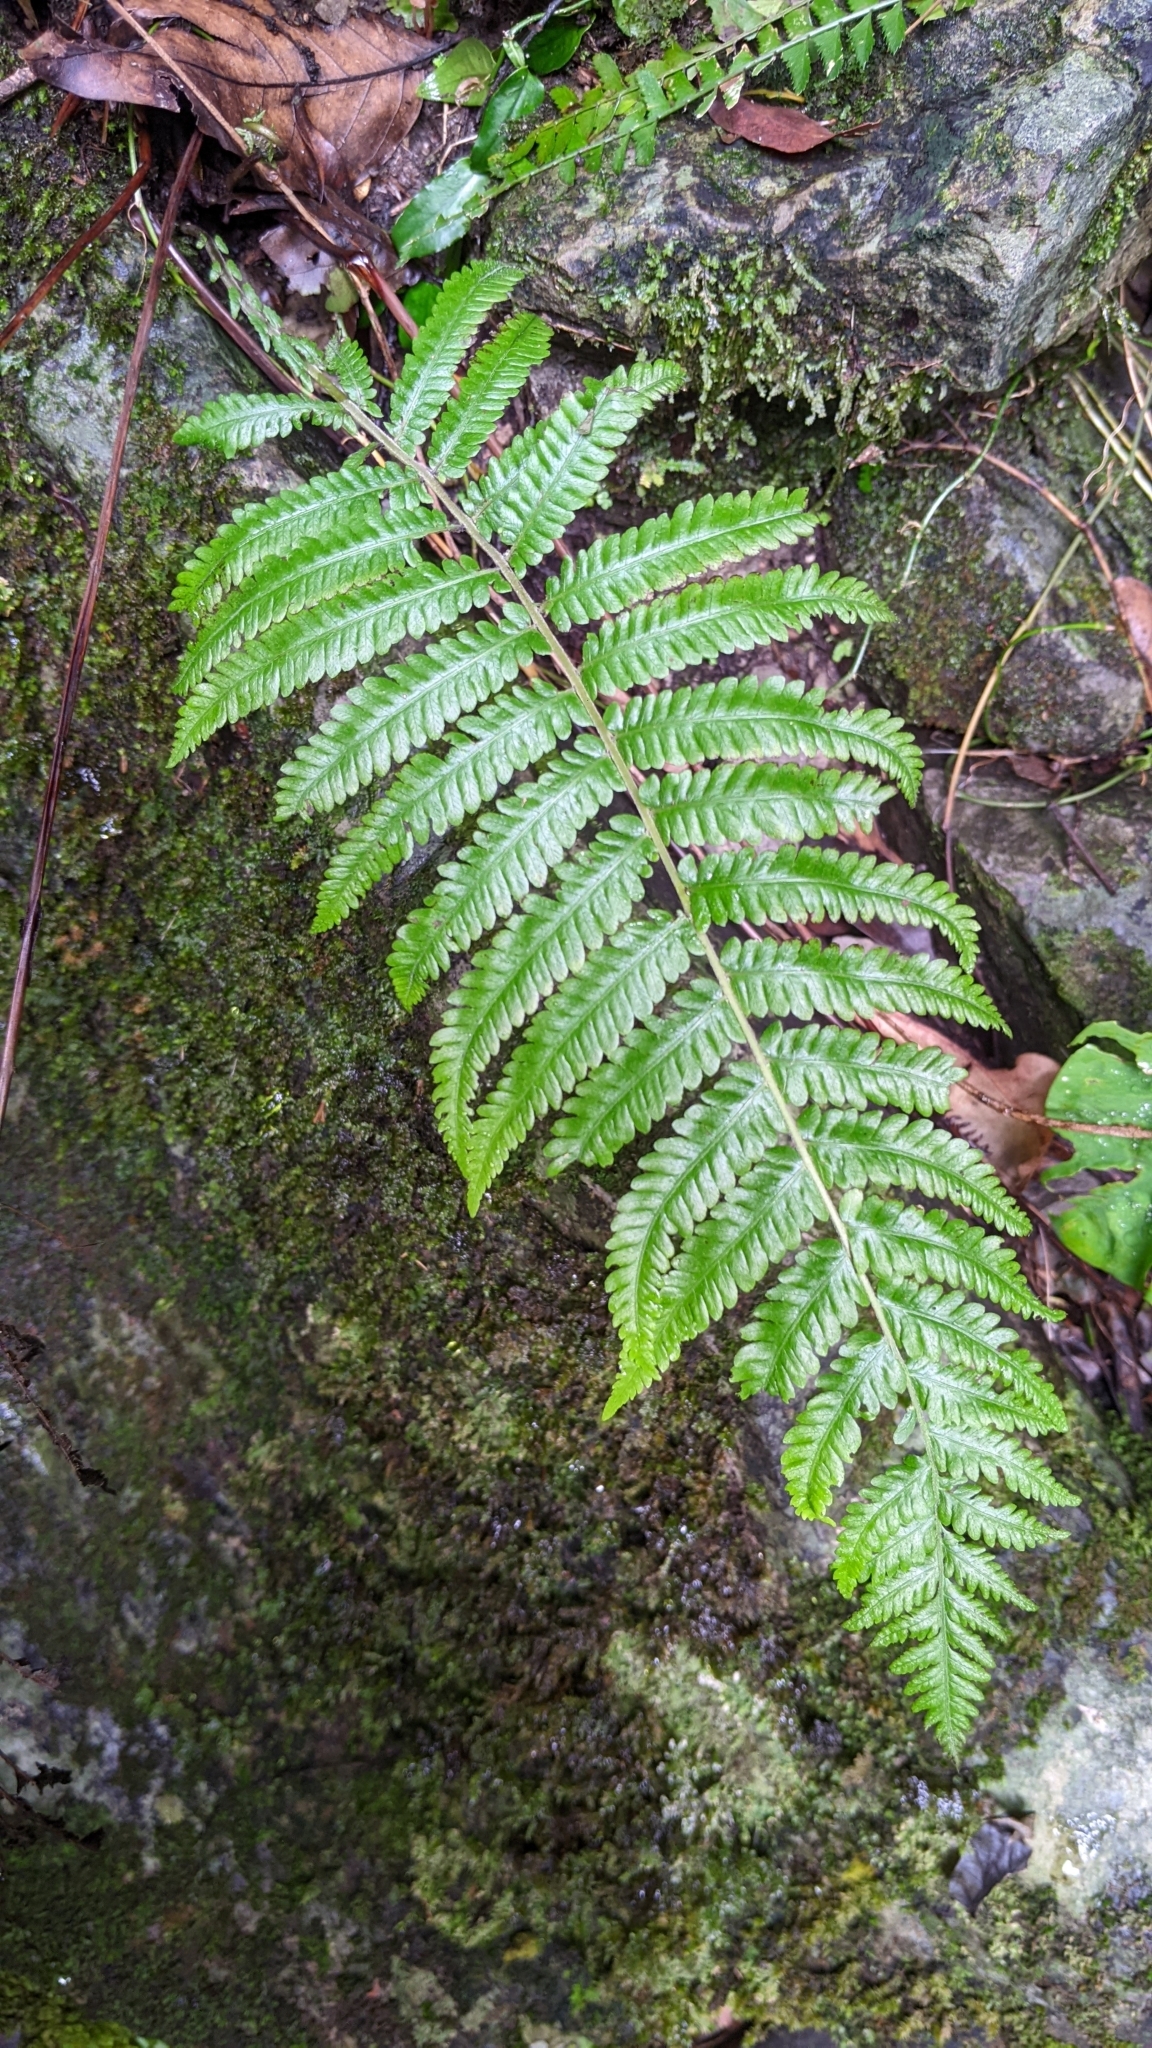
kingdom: Plantae
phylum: Tracheophyta
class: Polypodiopsida
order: Polypodiales
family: Thelypteridaceae
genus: Pseudocyclosorus
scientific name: Pseudocyclosorus esquirolii
